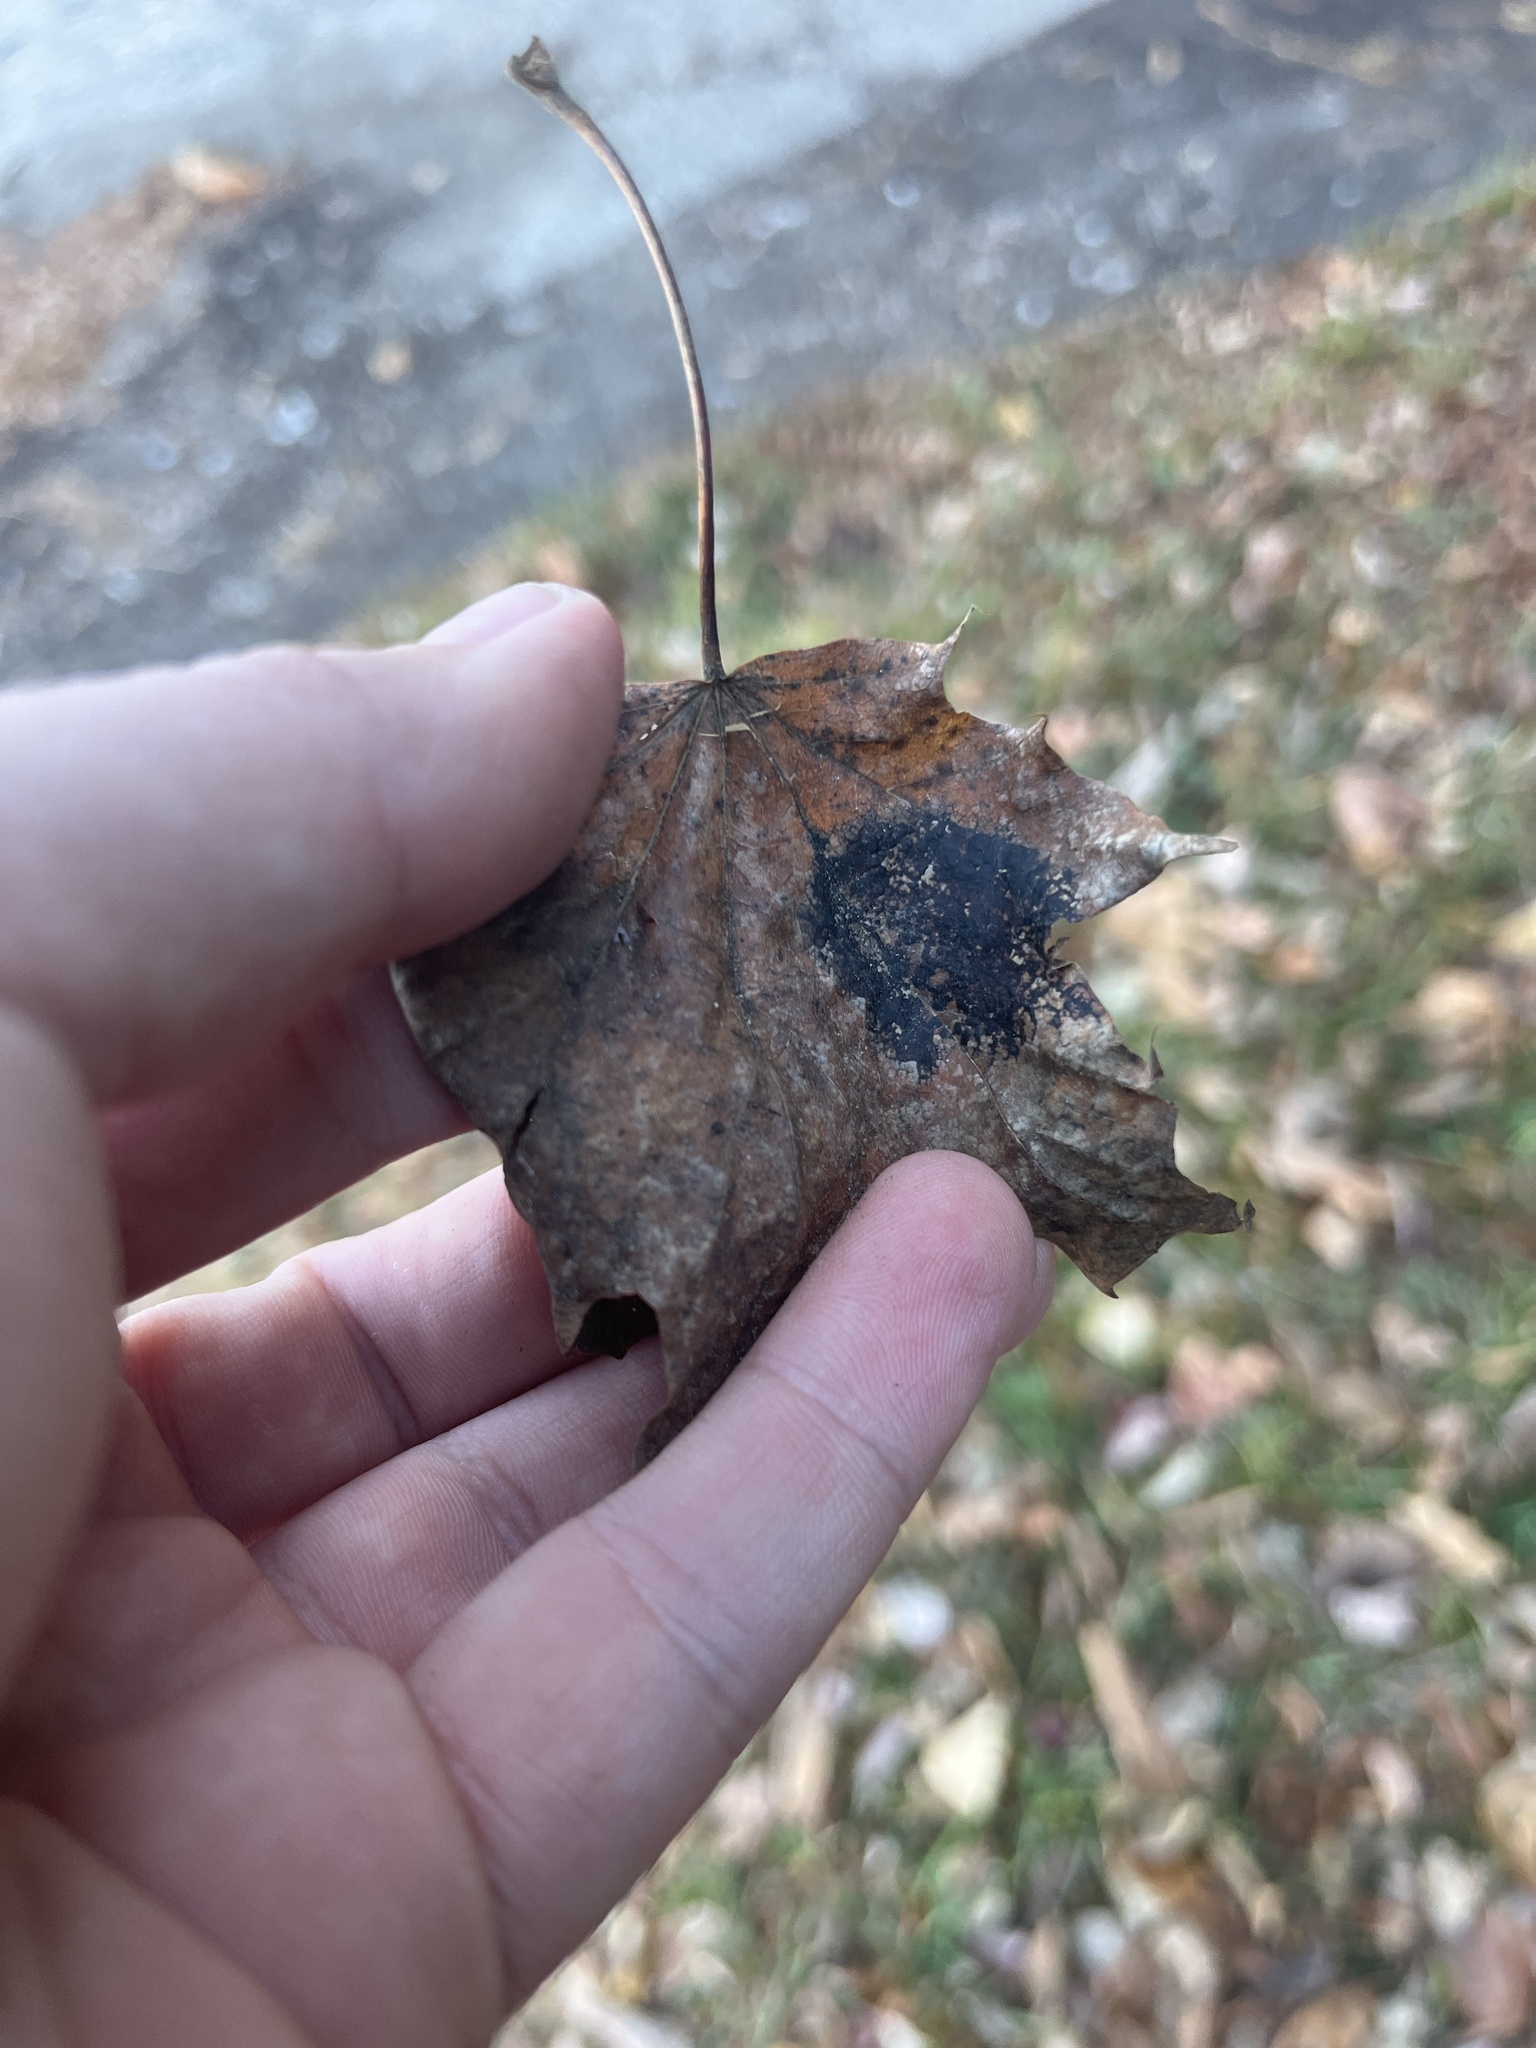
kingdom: Fungi
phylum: Ascomycota
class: Leotiomycetes
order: Rhytismatales
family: Rhytismataceae
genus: Rhytisma
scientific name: Rhytisma acerinum
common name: European tar spot
